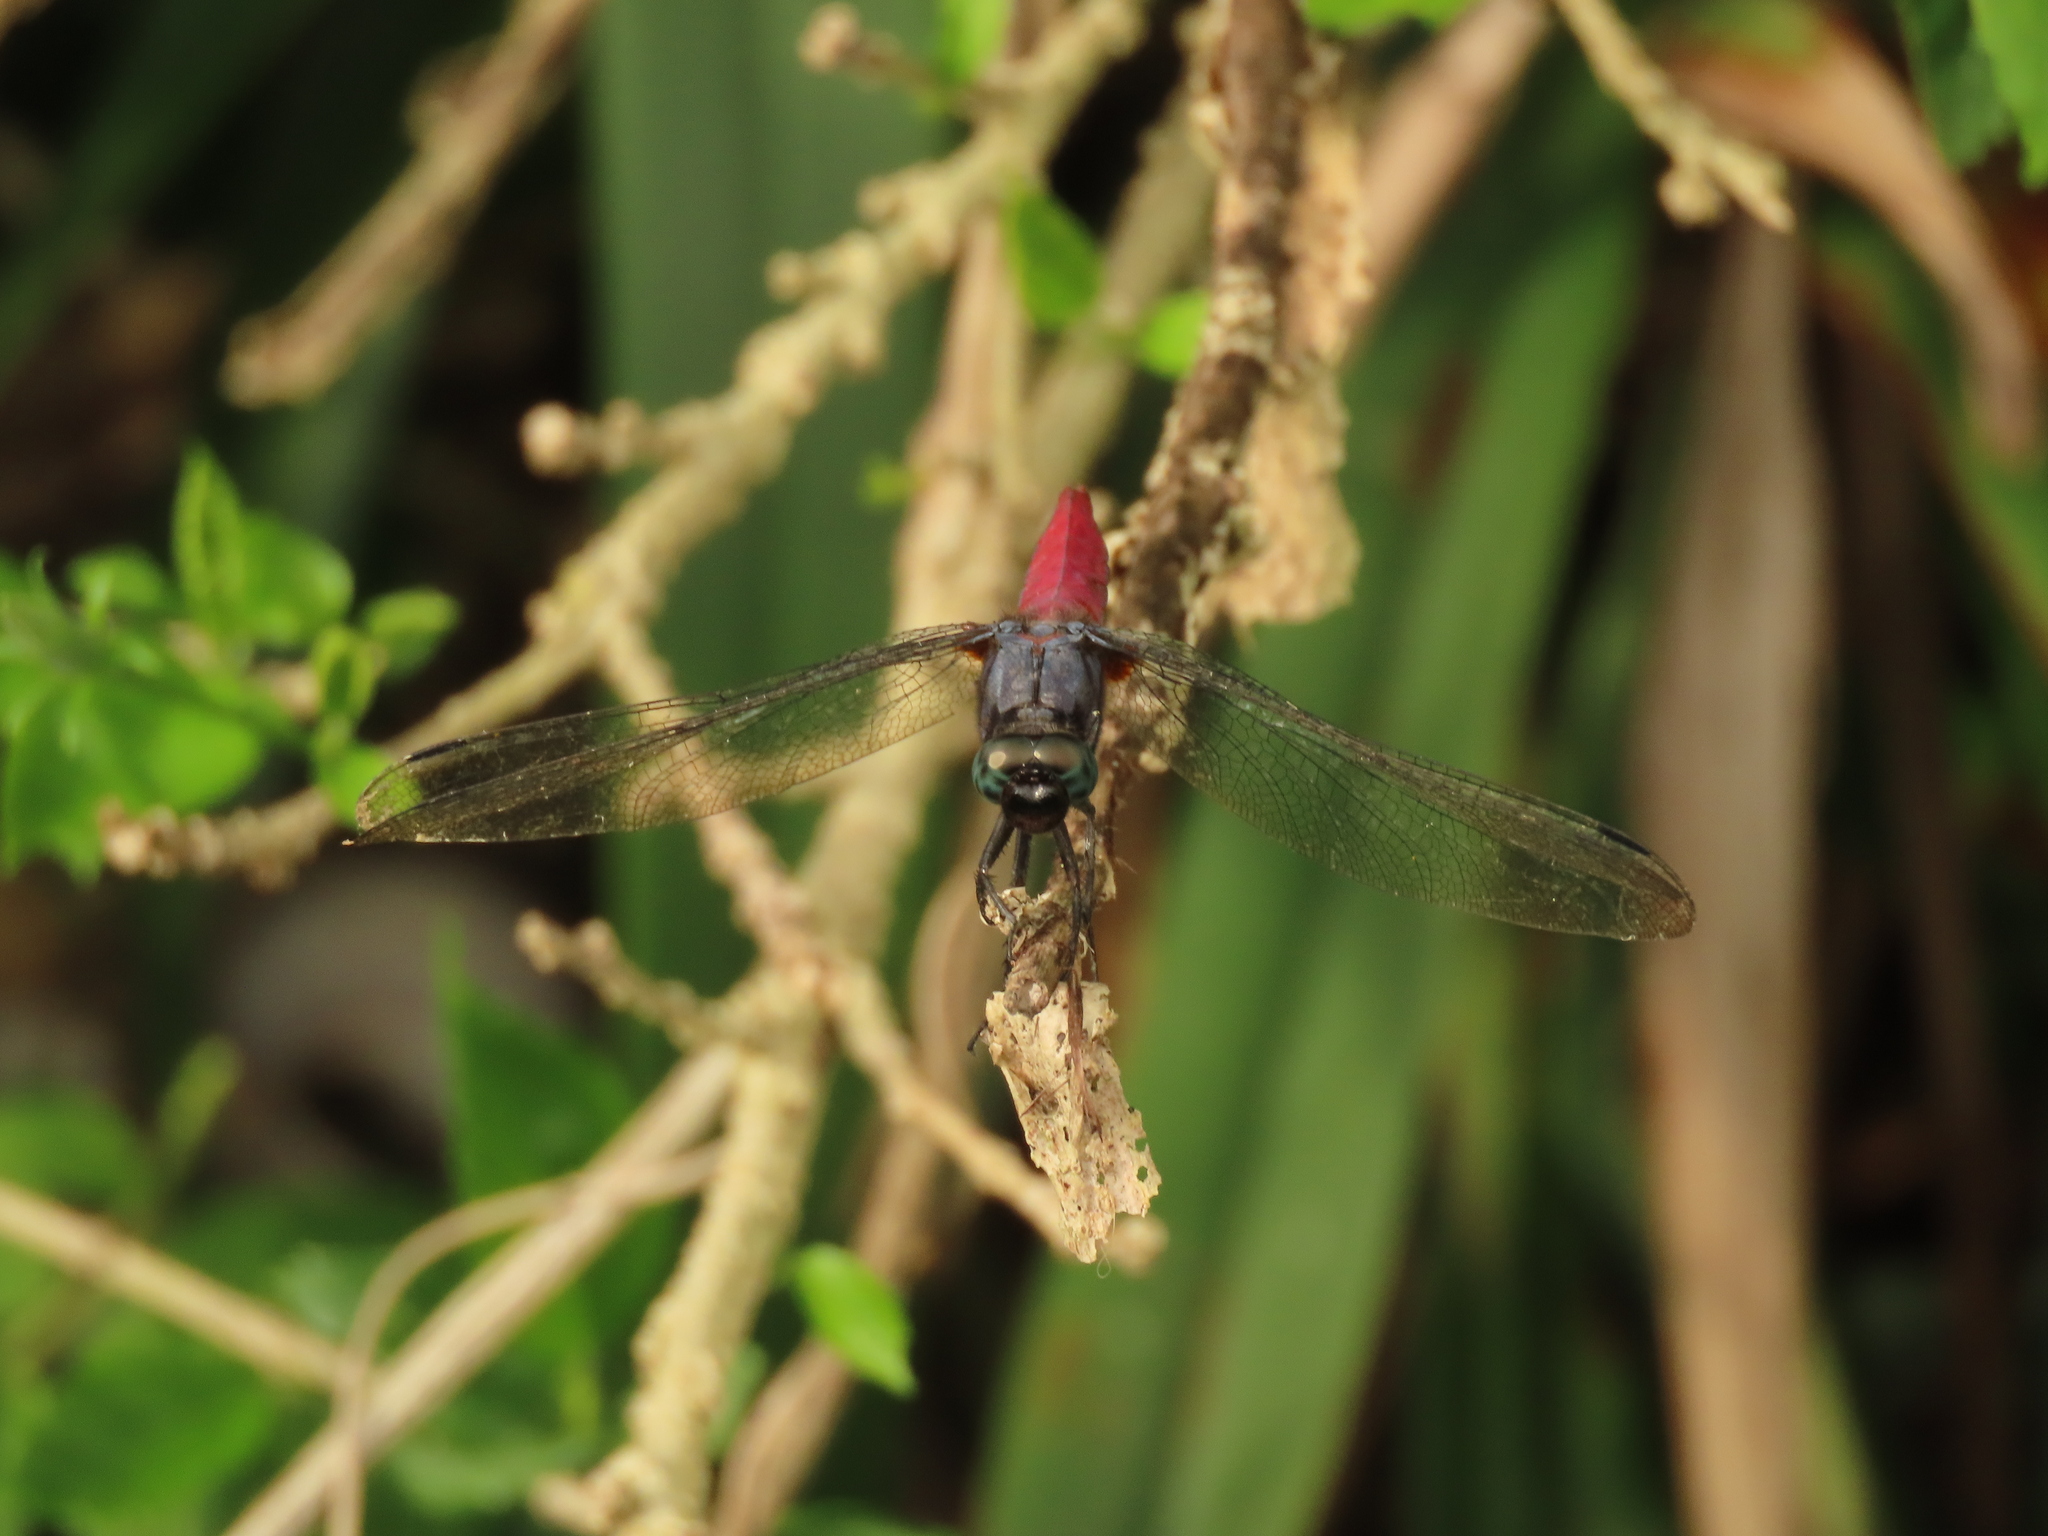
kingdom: Animalia
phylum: Arthropoda
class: Insecta
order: Odonata
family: Libellulidae
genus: Orthetrum
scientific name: Orthetrum pruinosum
